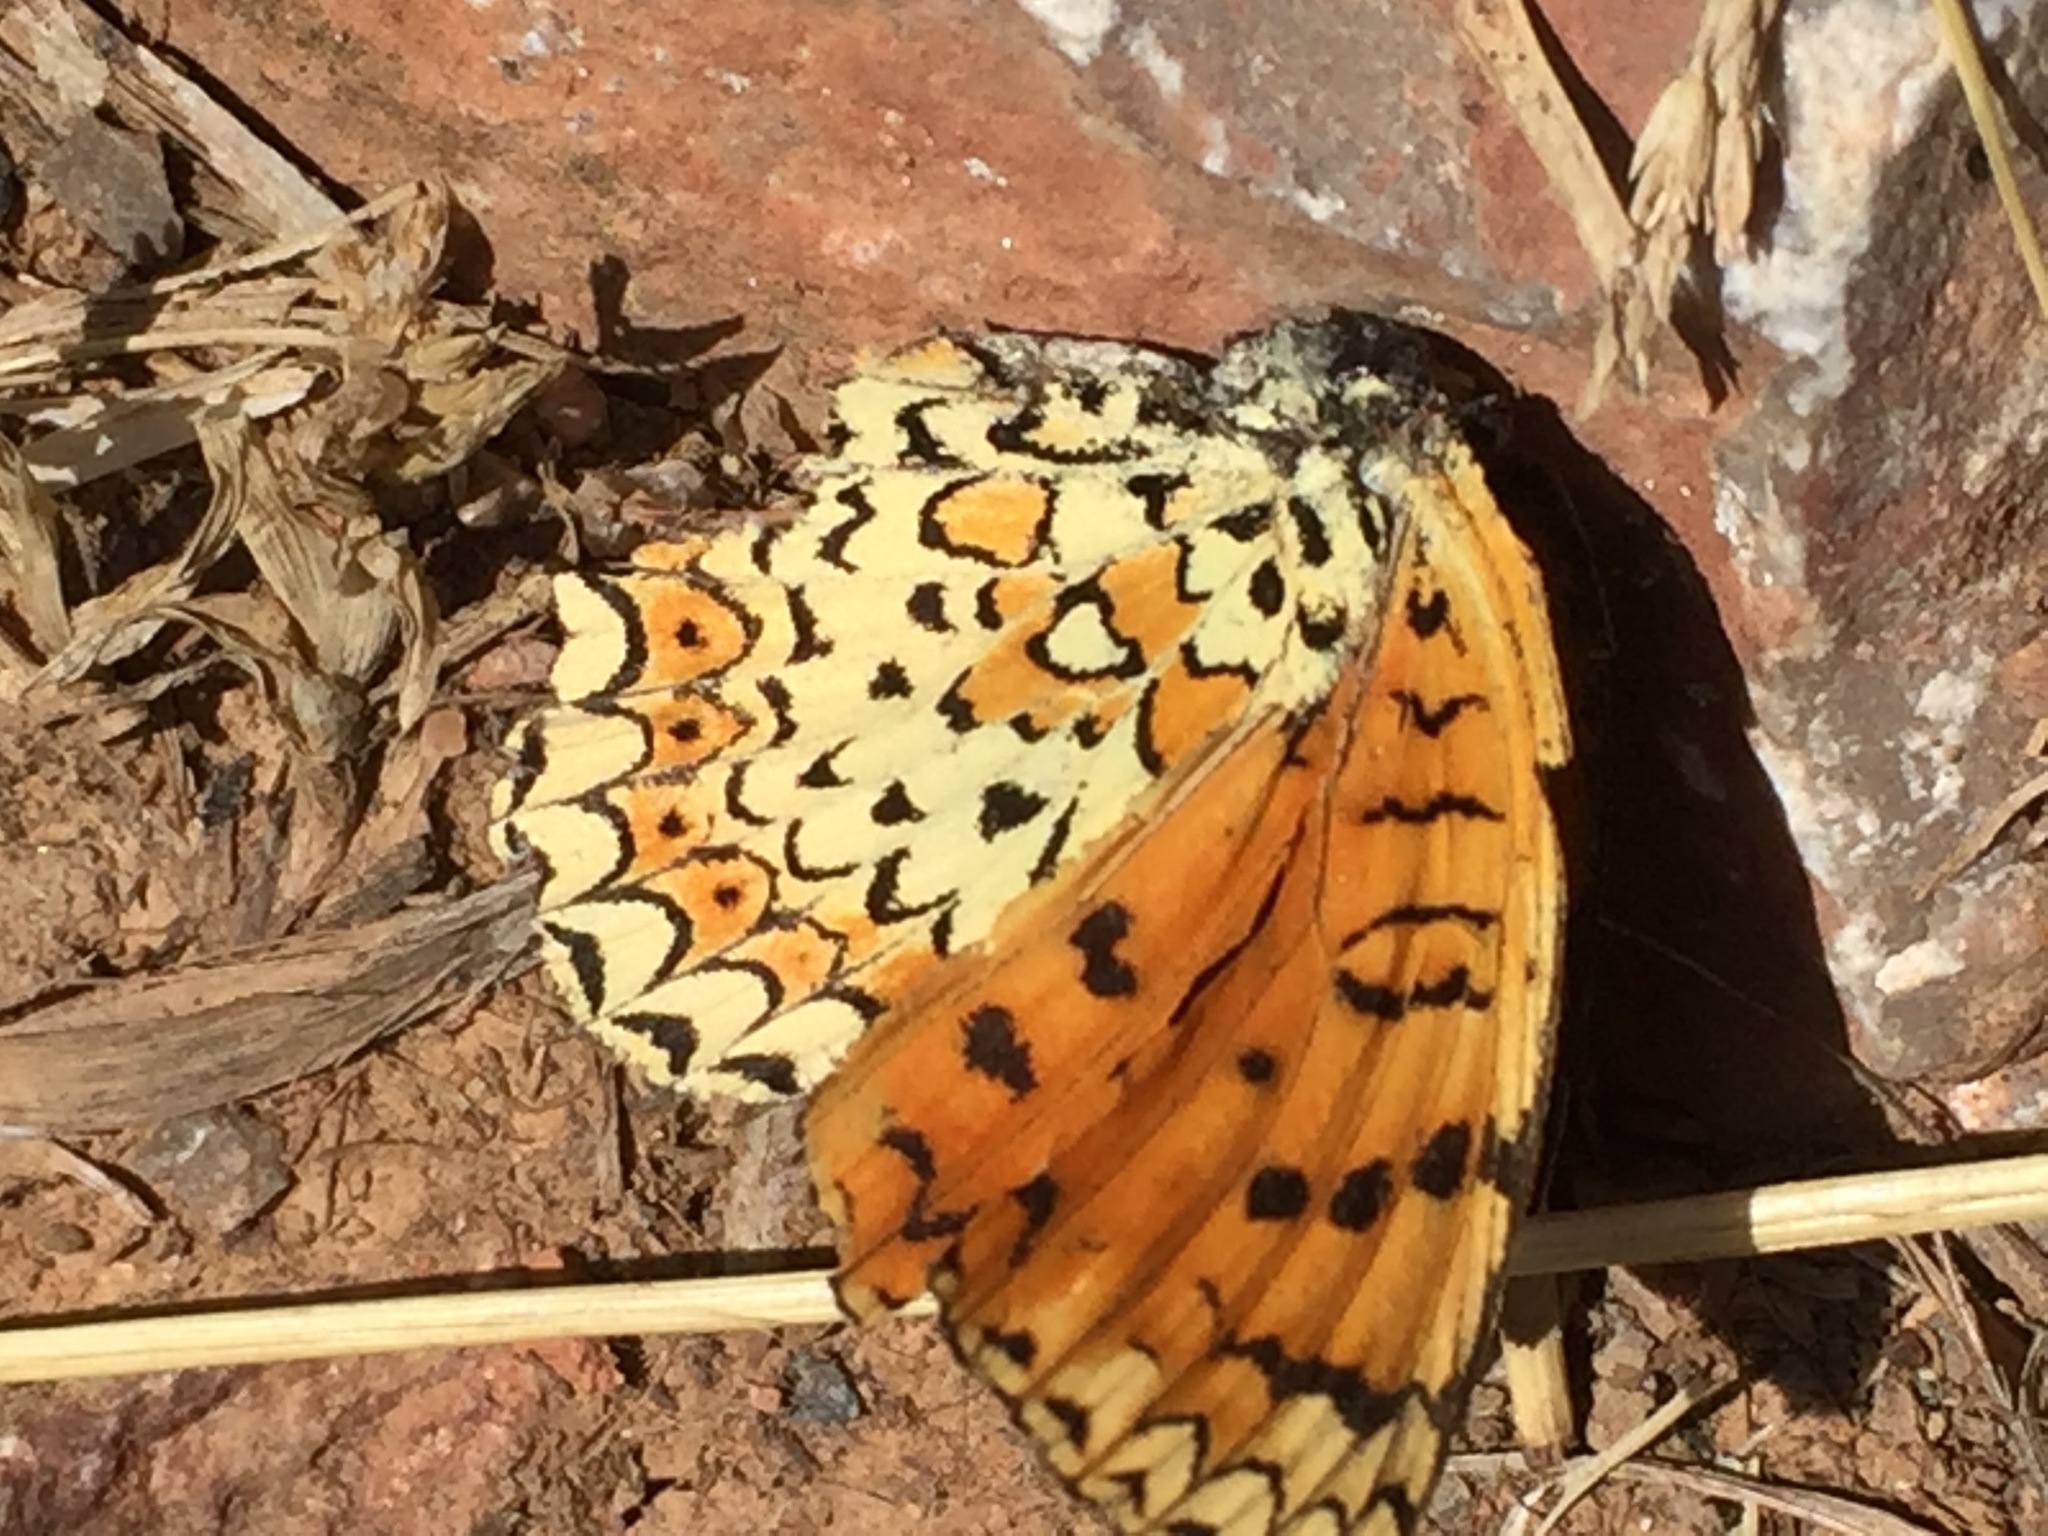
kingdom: Animalia
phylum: Arthropoda
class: Insecta
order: Lepidoptera
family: Nymphalidae
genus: Melitaea
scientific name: Melitaea arduinna
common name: Freyer's fritillary
